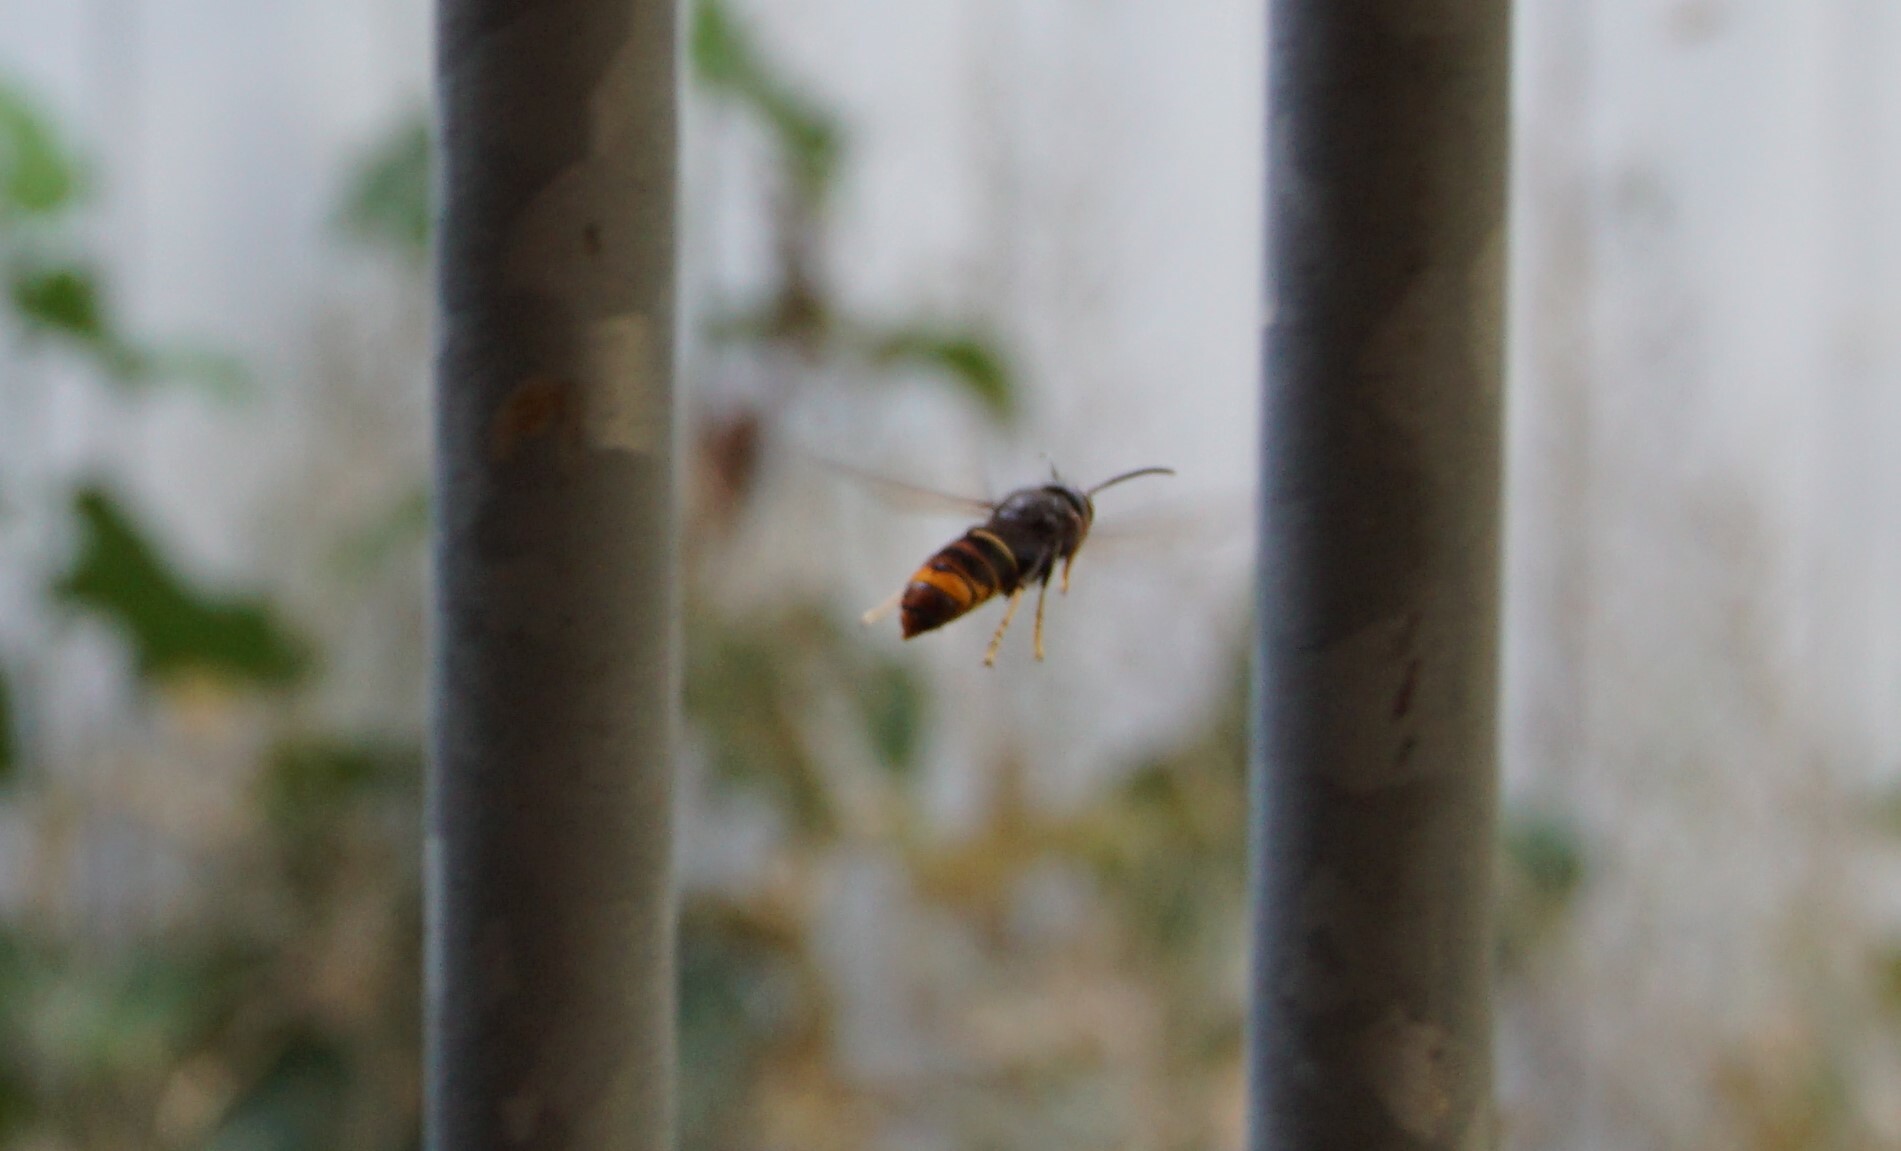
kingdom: Animalia
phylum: Arthropoda
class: Insecta
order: Hymenoptera
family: Vespidae
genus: Vespa
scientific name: Vespa velutina
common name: Asian hornet
